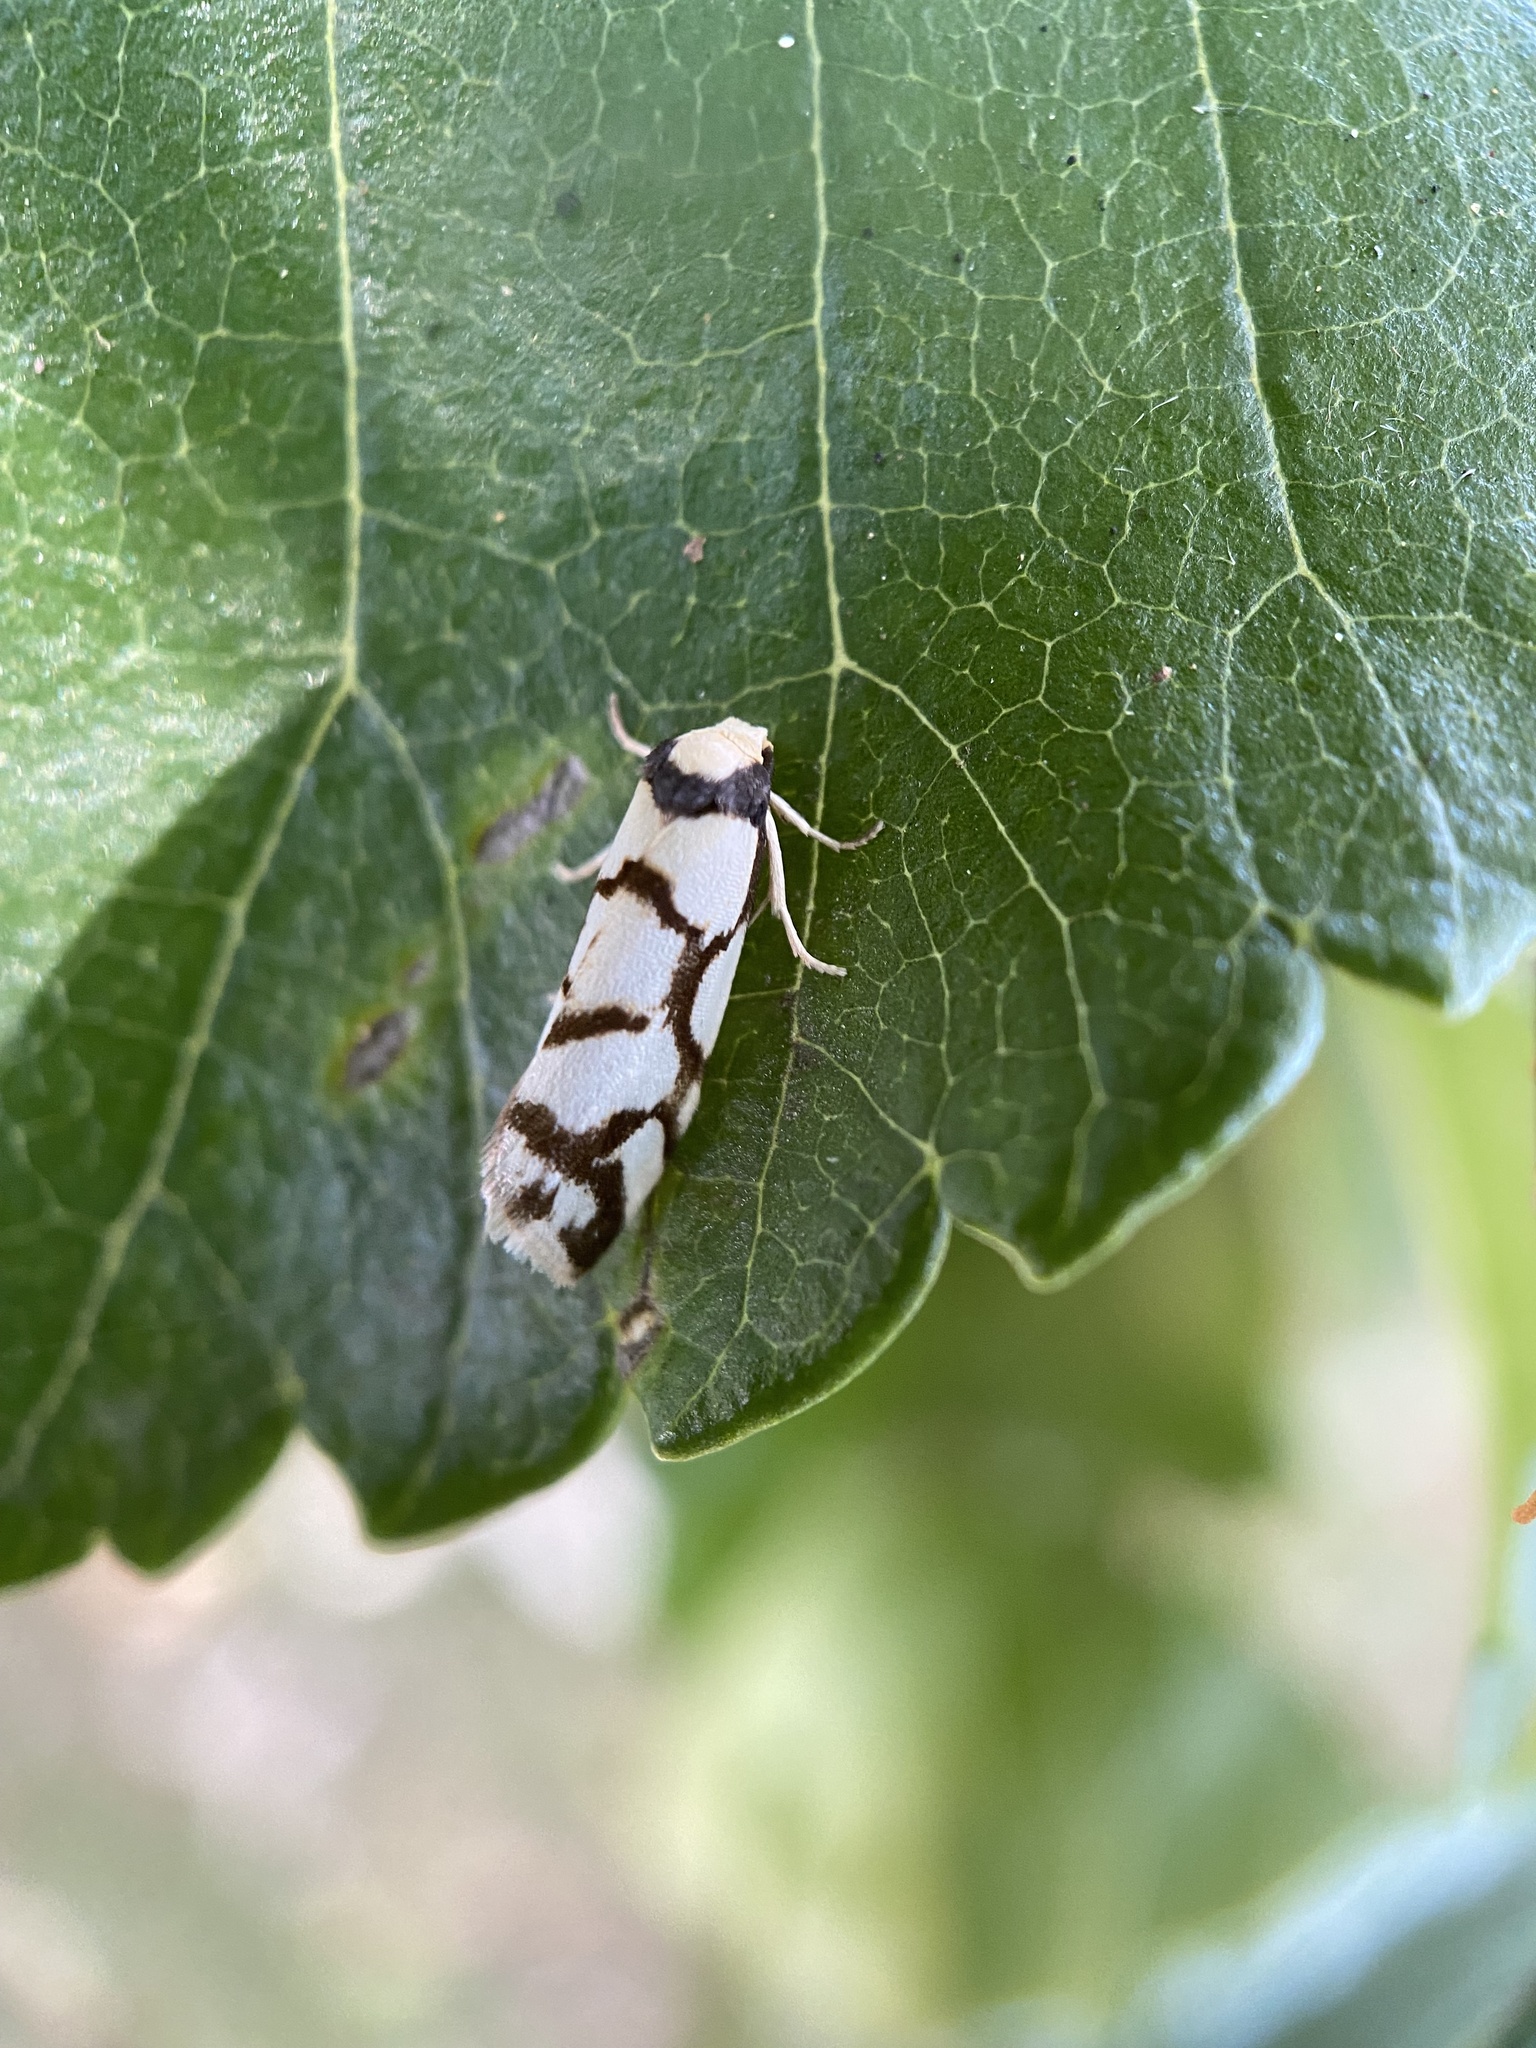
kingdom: Animalia
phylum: Arthropoda
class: Insecta
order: Lepidoptera
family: Erebidae
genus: Scaptesyle
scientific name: Scaptesyle dichotoma
